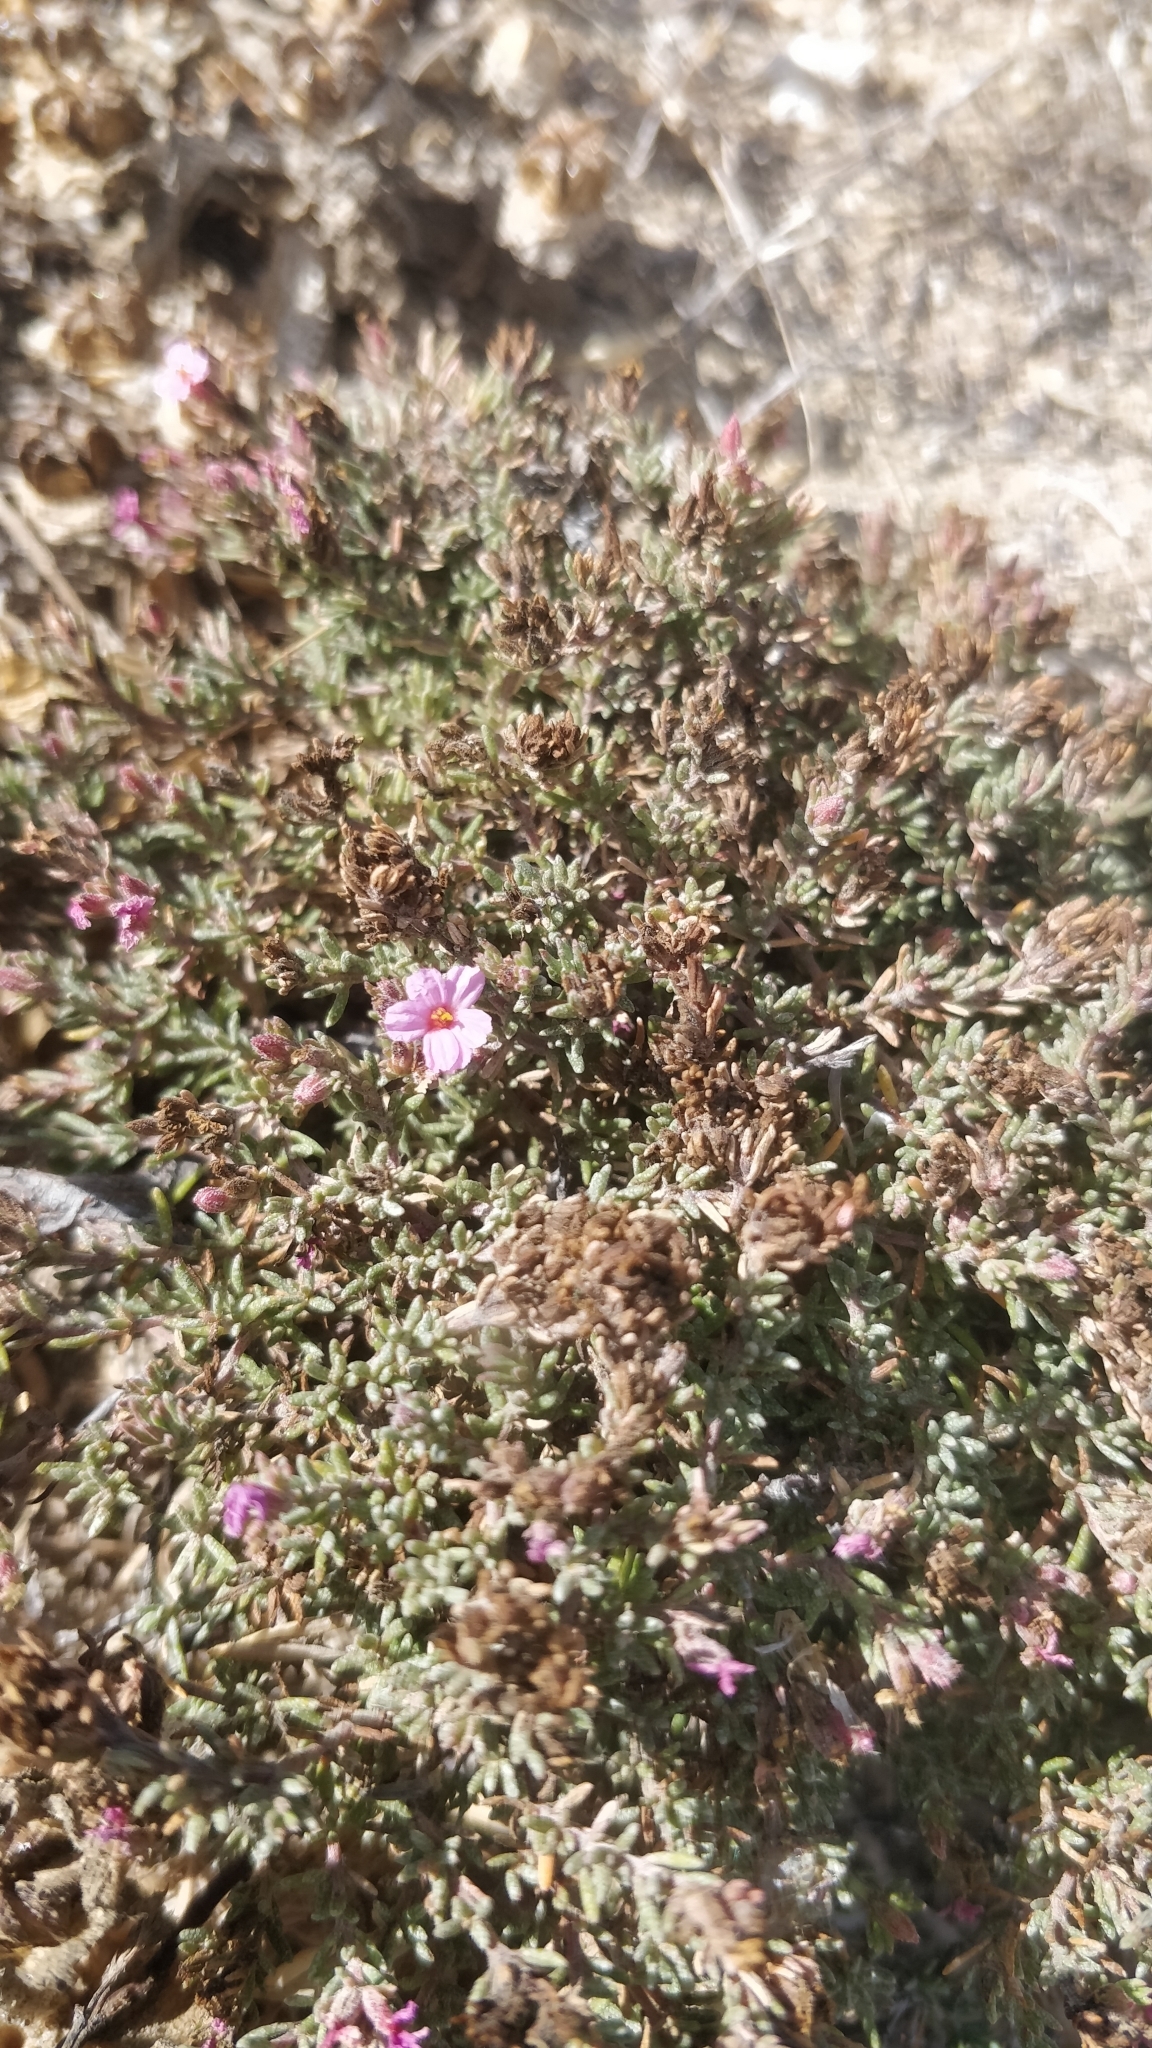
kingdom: Plantae
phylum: Tracheophyta
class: Magnoliopsida
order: Caryophyllales
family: Frankeniaceae
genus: Frankenia
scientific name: Frankenia laevis
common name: Sea-heath
